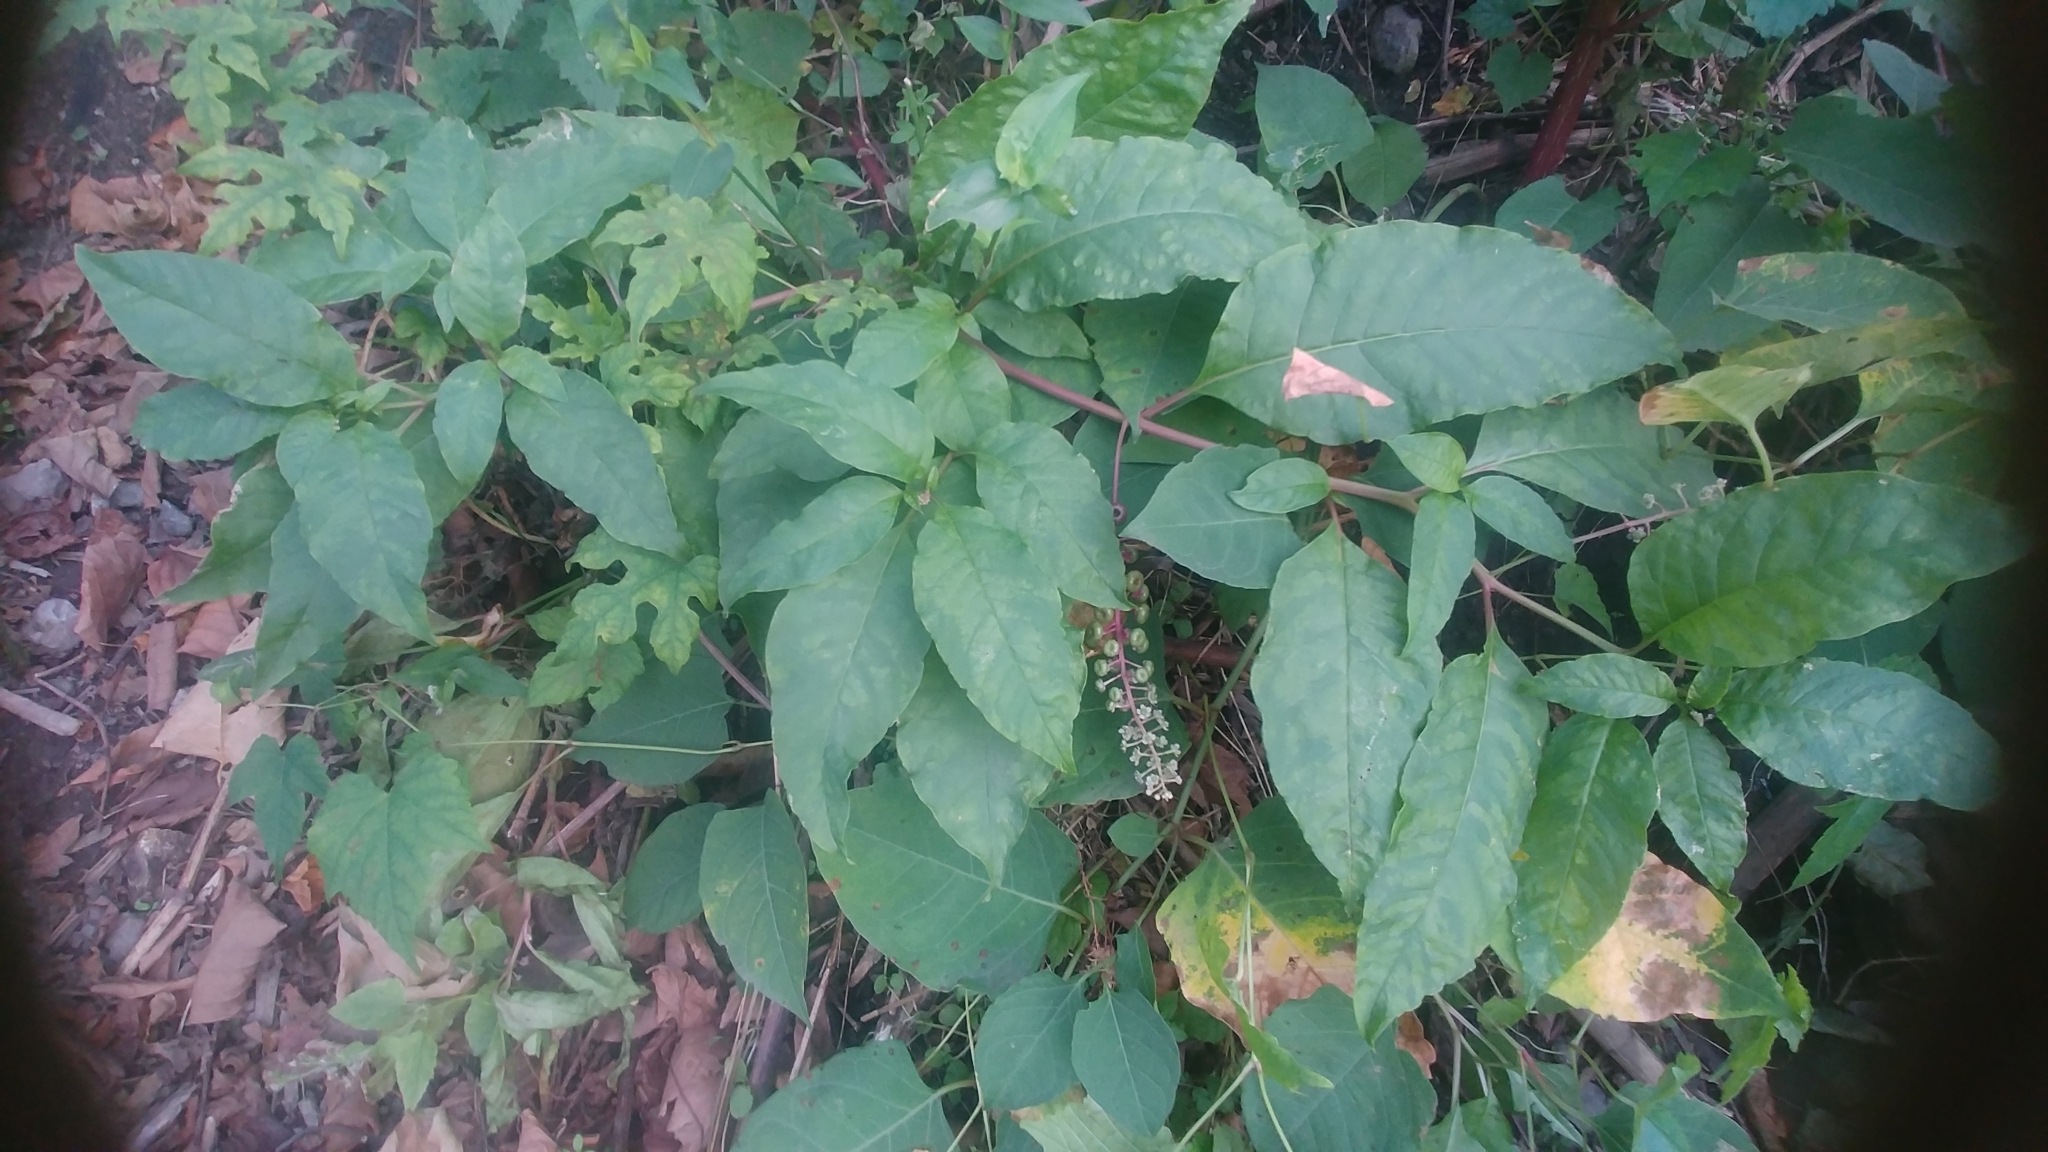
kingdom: Plantae
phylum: Tracheophyta
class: Magnoliopsida
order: Caryophyllales
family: Phytolaccaceae
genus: Phytolacca
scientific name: Phytolacca americana
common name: American pokeweed
